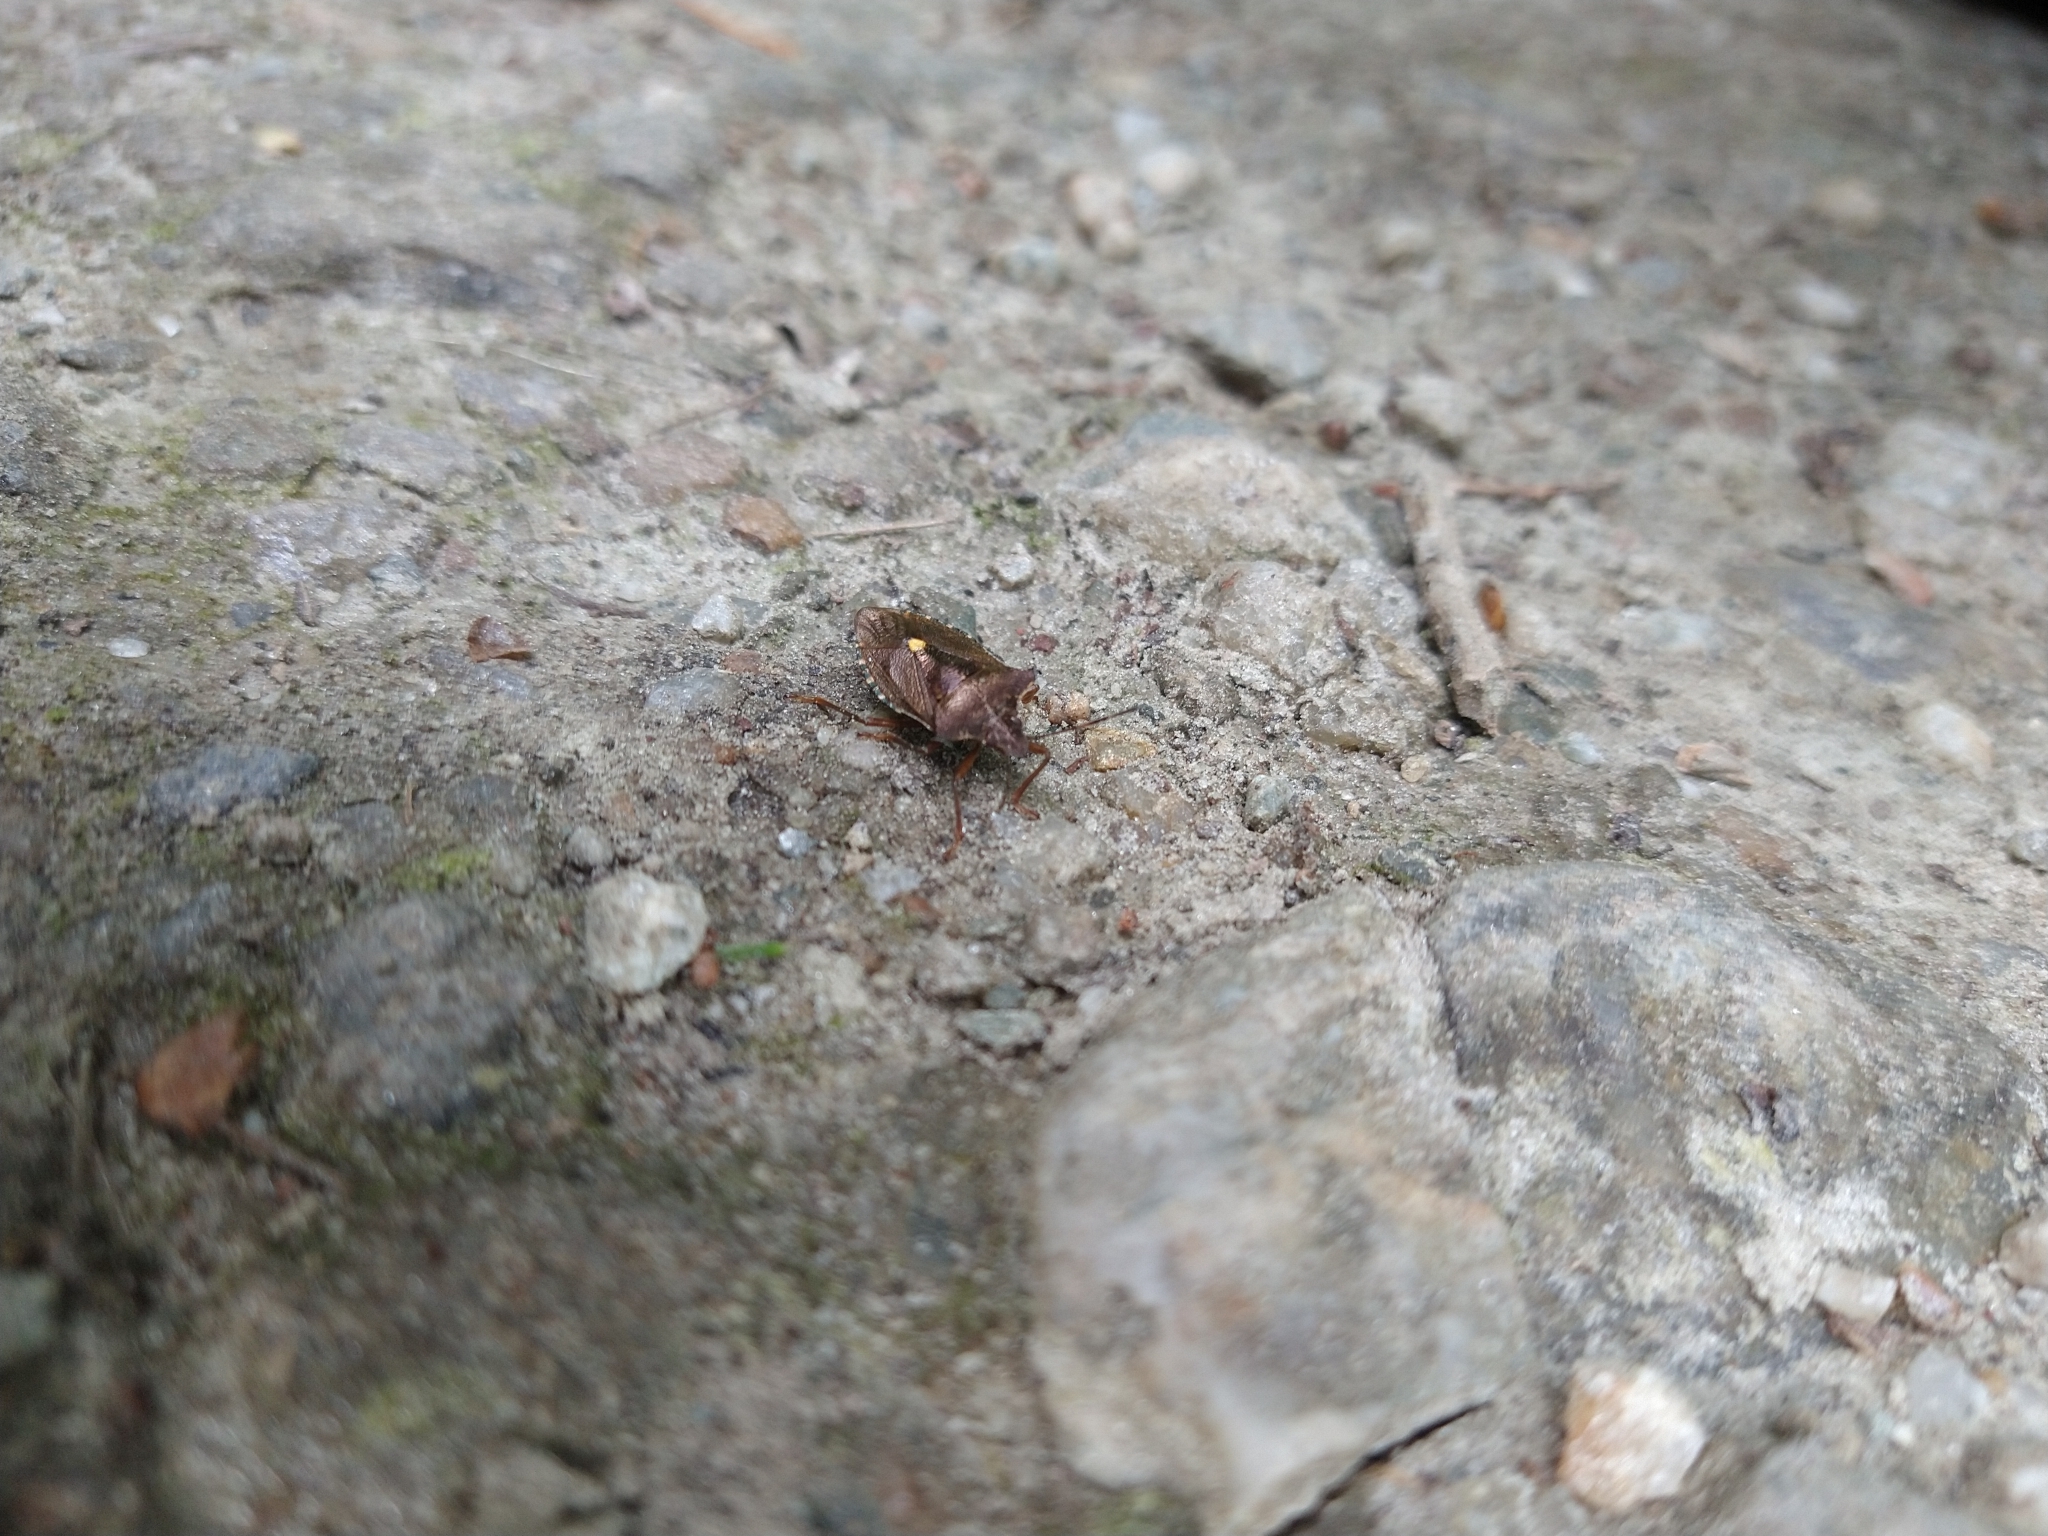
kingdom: Animalia
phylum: Arthropoda
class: Insecta
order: Hemiptera
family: Pentatomidae
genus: Pentatoma
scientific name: Pentatoma rufipes
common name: Forest bug
